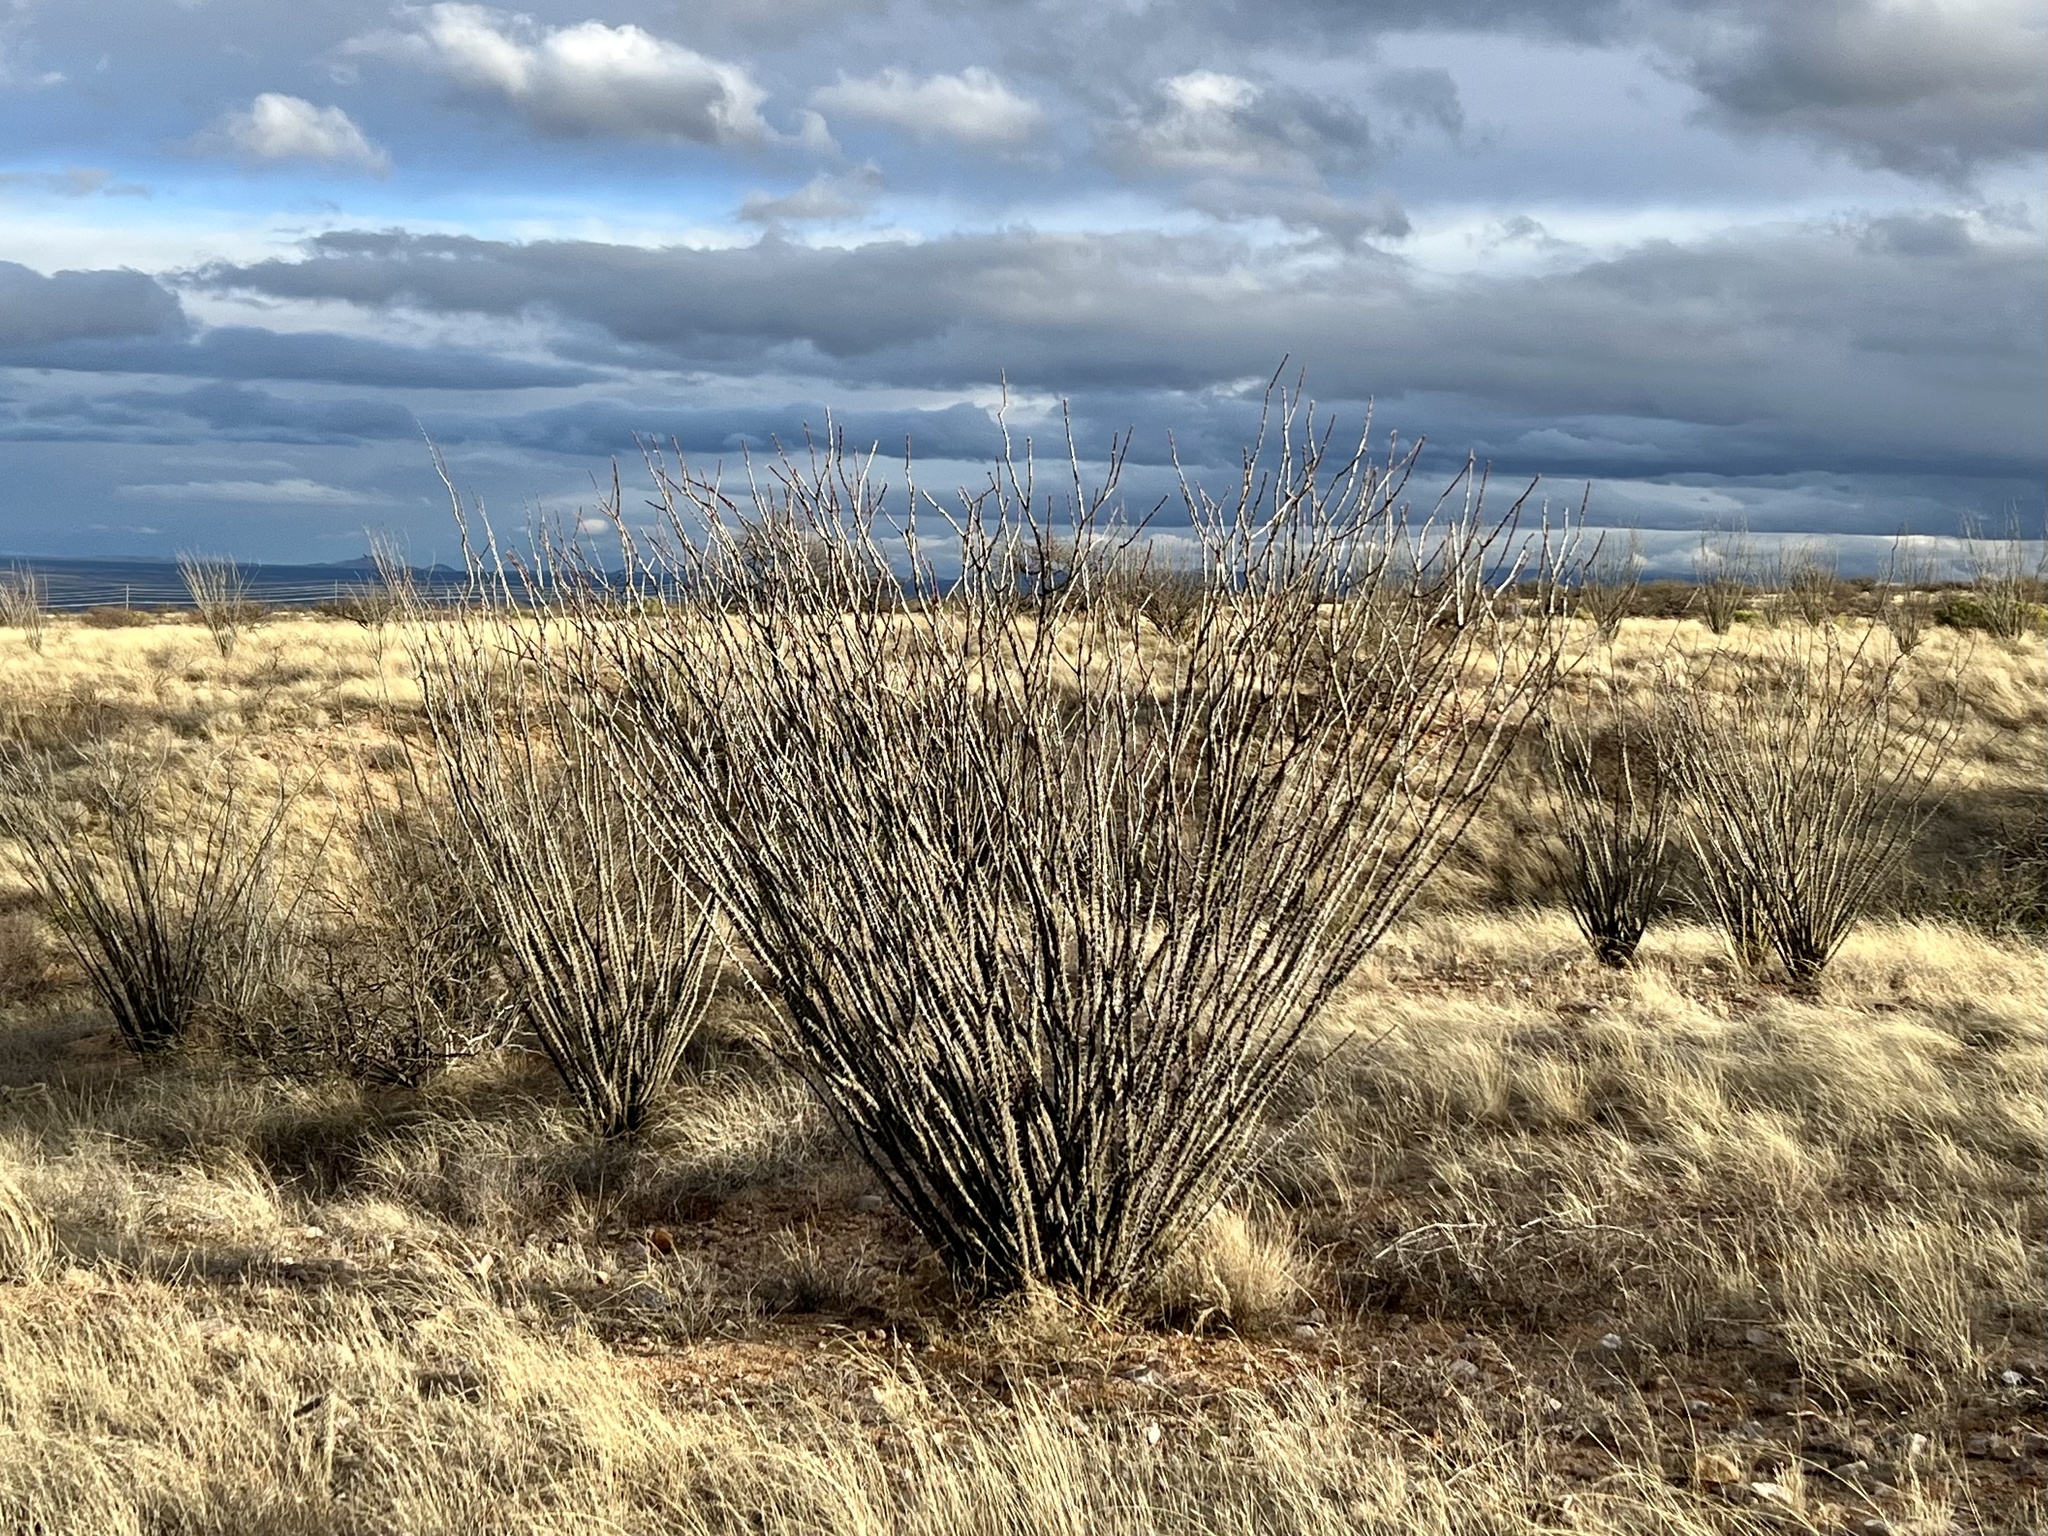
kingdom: Plantae
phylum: Tracheophyta
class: Magnoliopsida
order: Ericales
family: Fouquieriaceae
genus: Fouquieria
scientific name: Fouquieria splendens
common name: Vine-cactus
